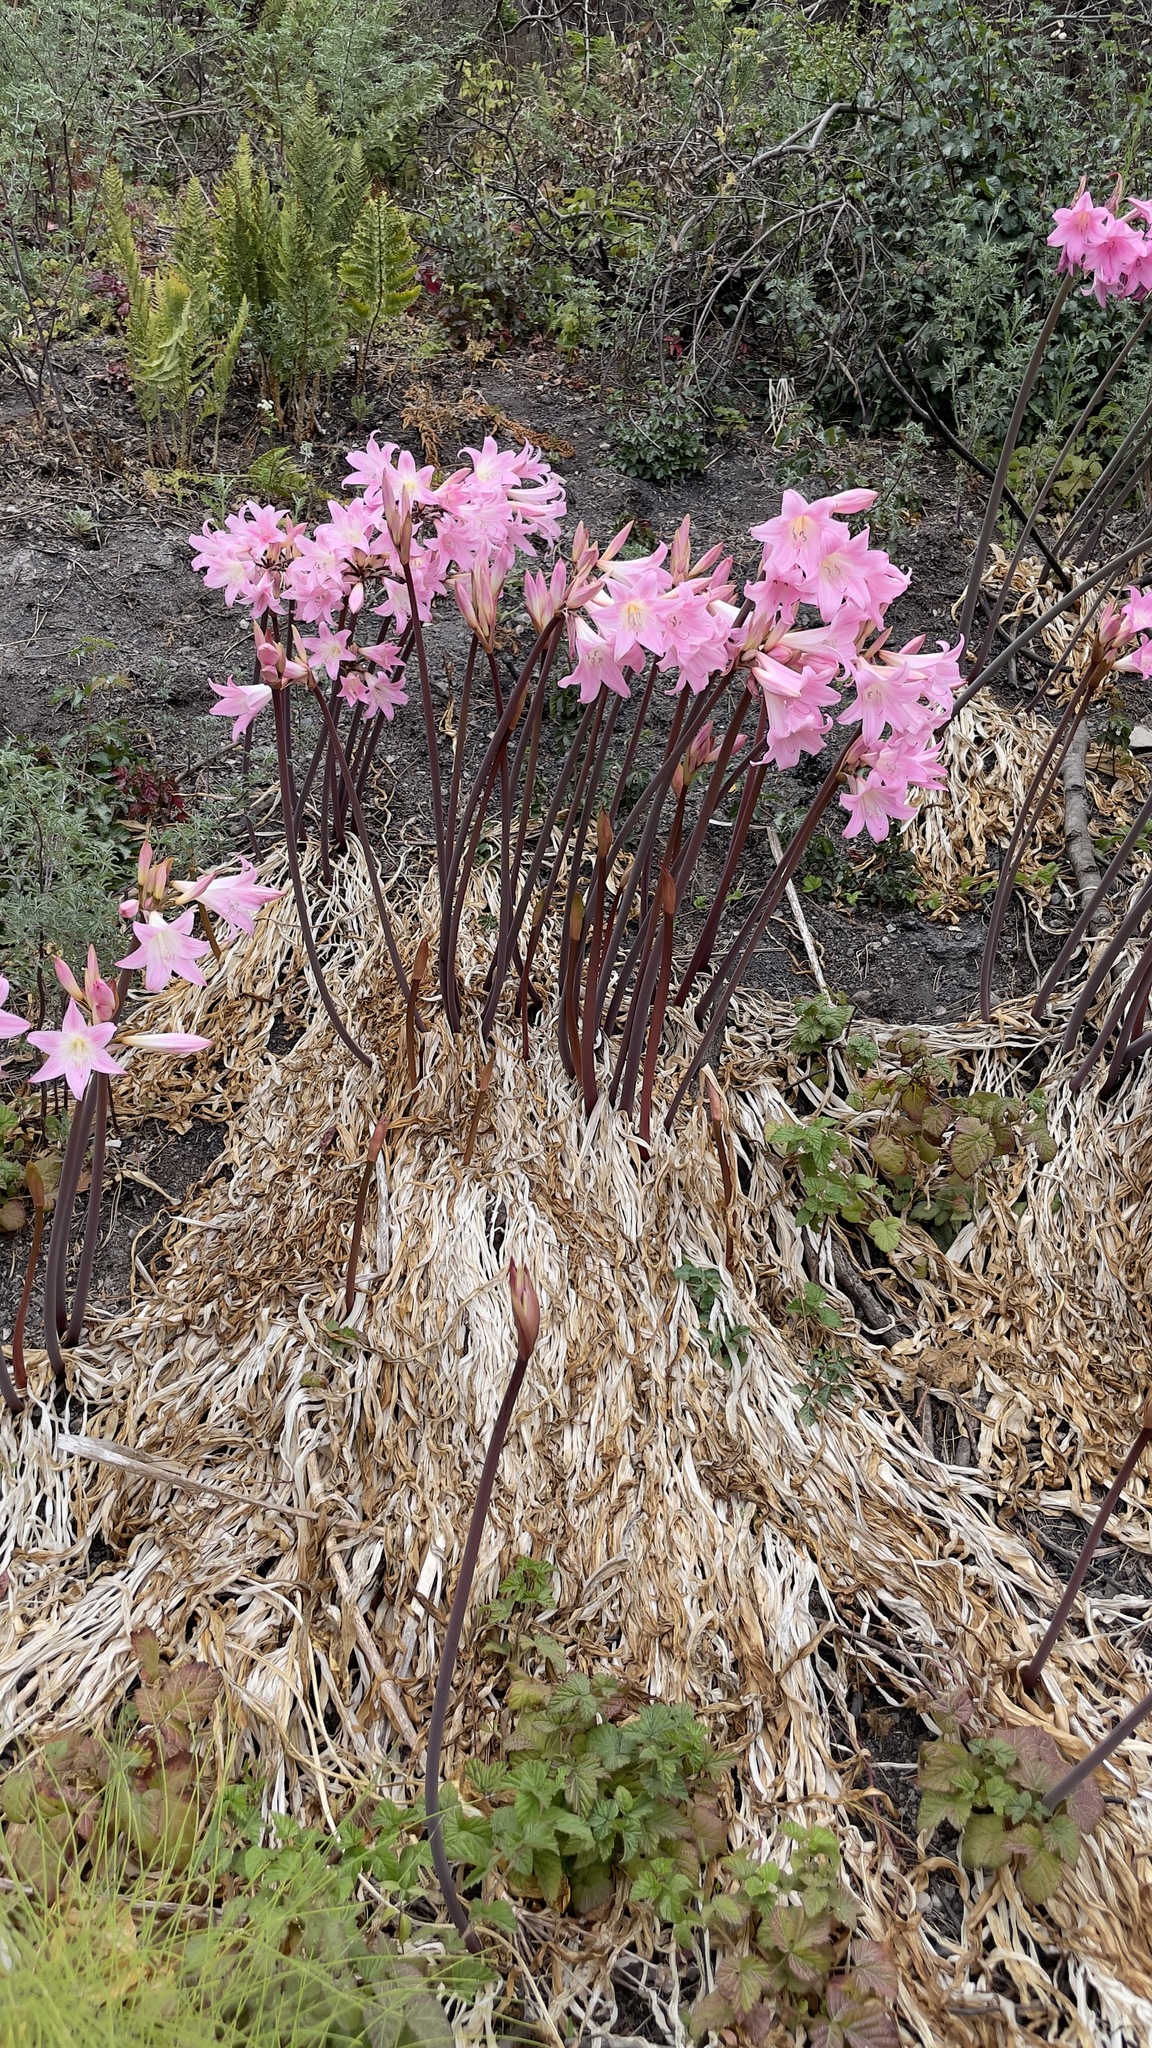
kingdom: Plantae
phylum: Tracheophyta
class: Liliopsida
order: Asparagales
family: Amaryllidaceae
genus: Amaryllis
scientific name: Amaryllis belladonna
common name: Jersey lily
